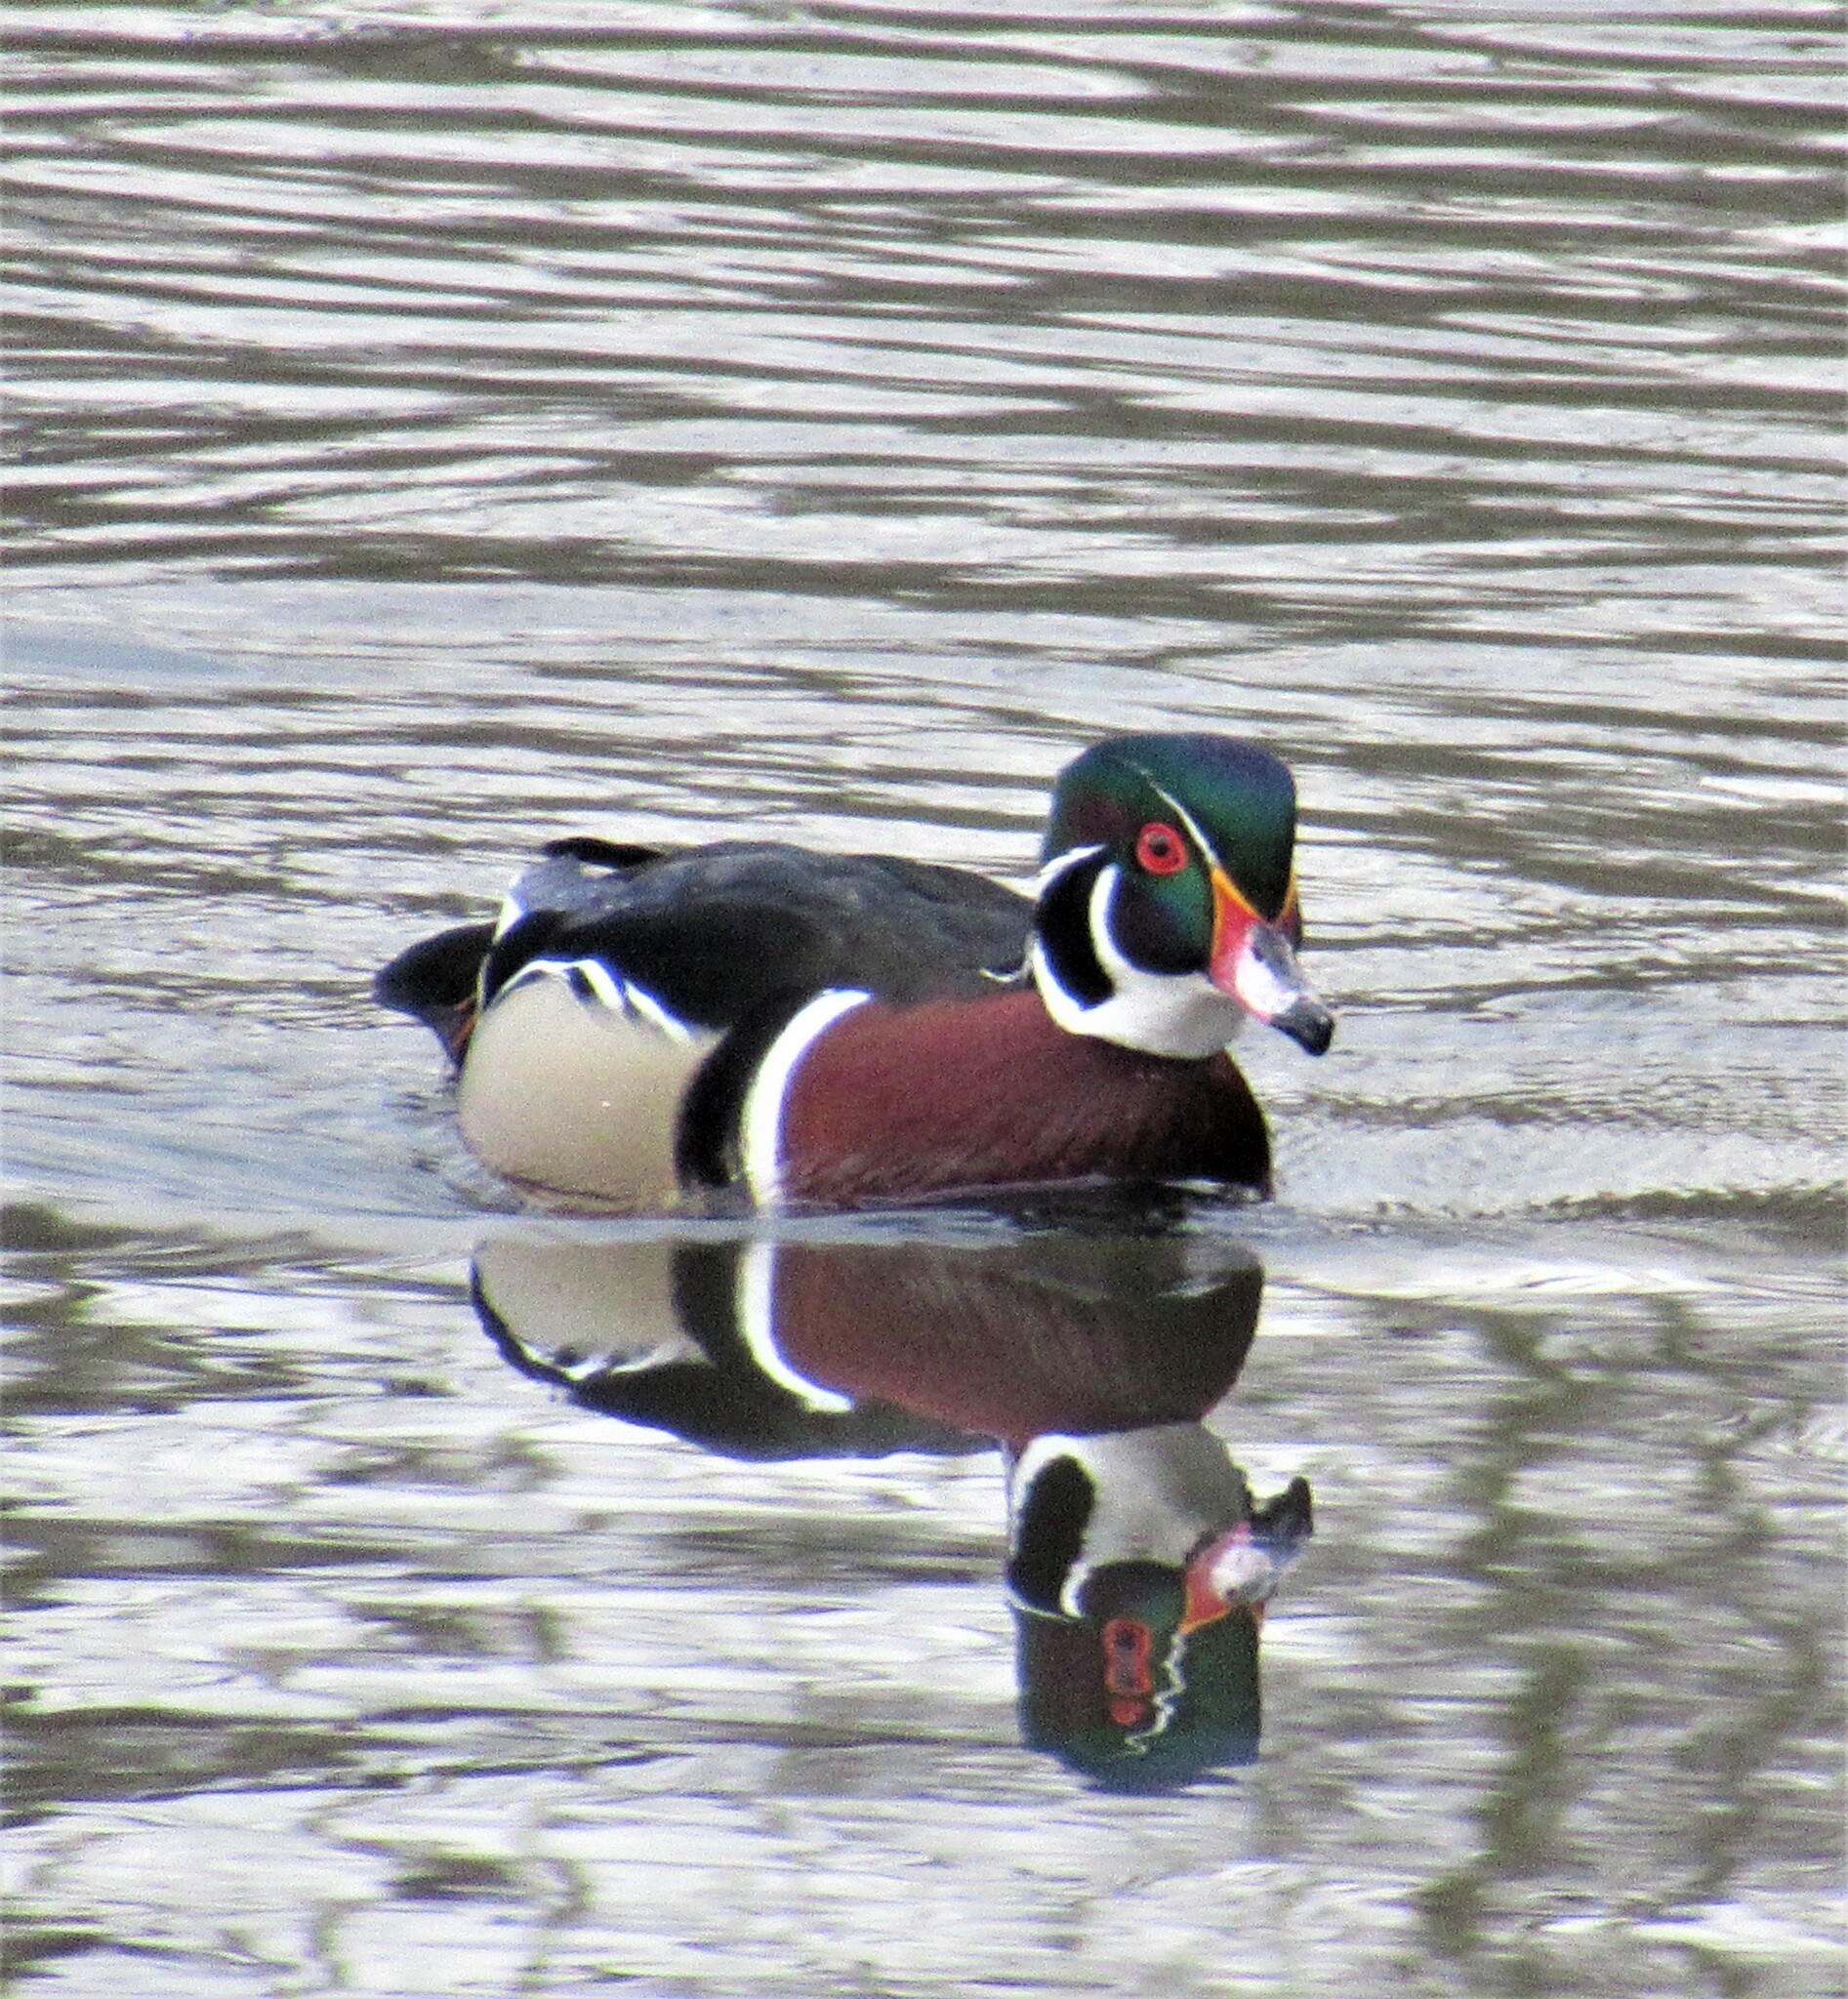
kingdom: Animalia
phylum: Chordata
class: Aves
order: Anseriformes
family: Anatidae
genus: Aix
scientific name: Aix sponsa
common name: Wood duck
